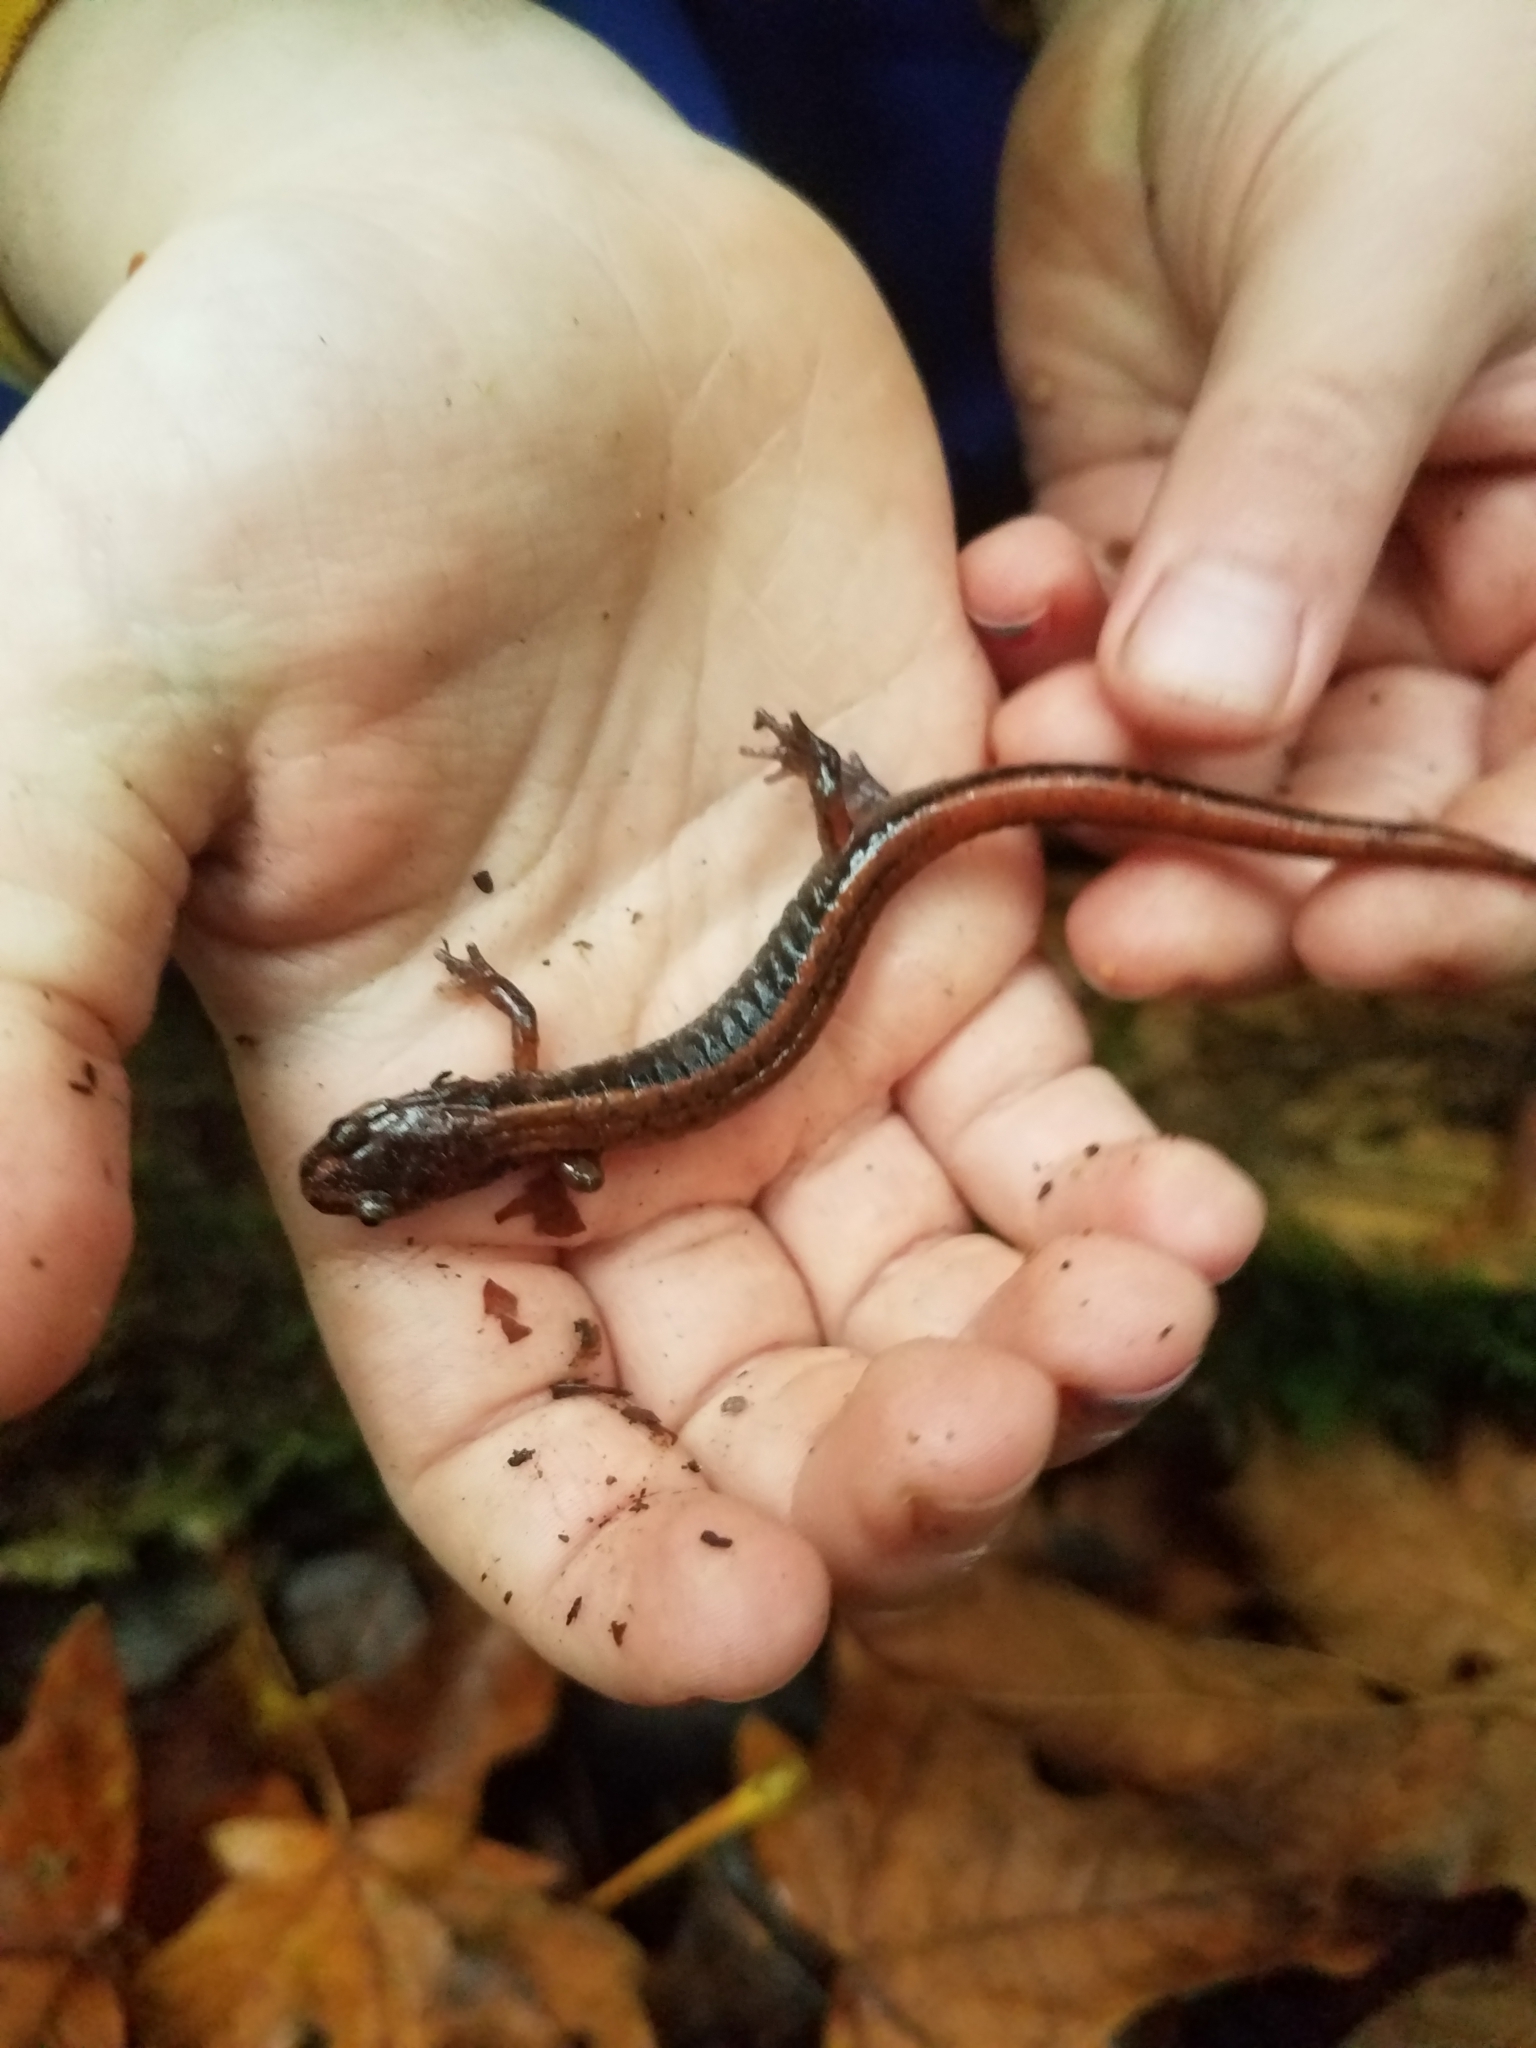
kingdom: Animalia
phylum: Chordata
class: Amphibia
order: Caudata
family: Plethodontidae
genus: Plethodon
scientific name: Plethodon vehiculum
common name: Western red-backed salamander
